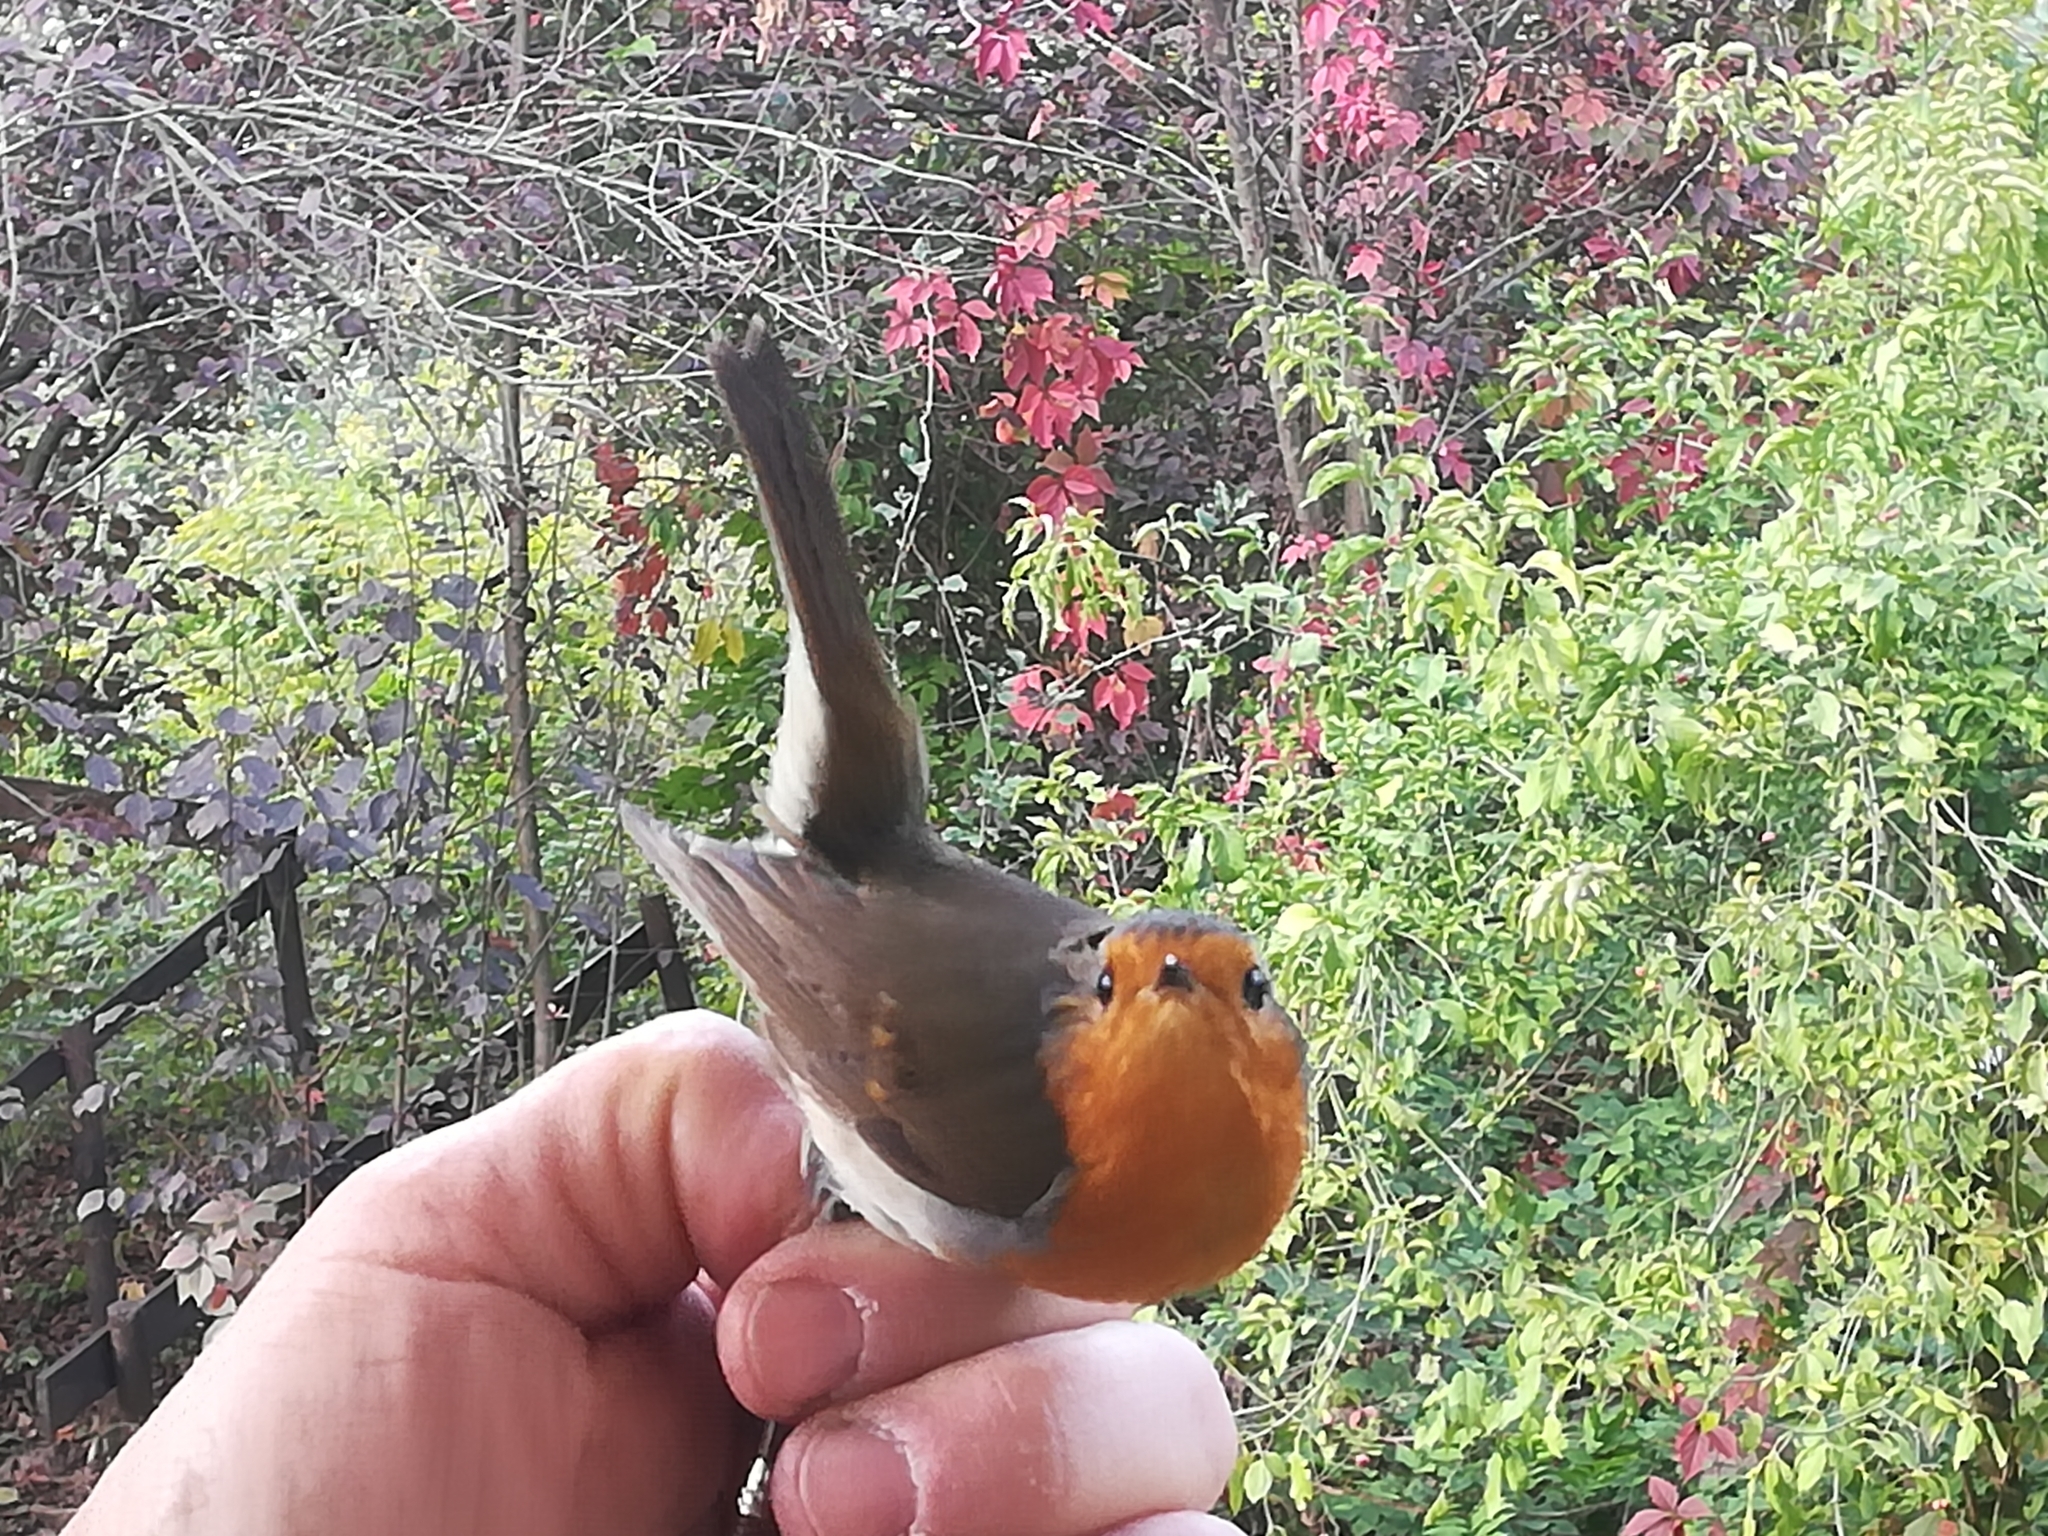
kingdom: Animalia
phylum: Chordata
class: Aves
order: Passeriformes
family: Muscicapidae
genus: Erithacus
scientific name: Erithacus rubecula
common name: European robin
